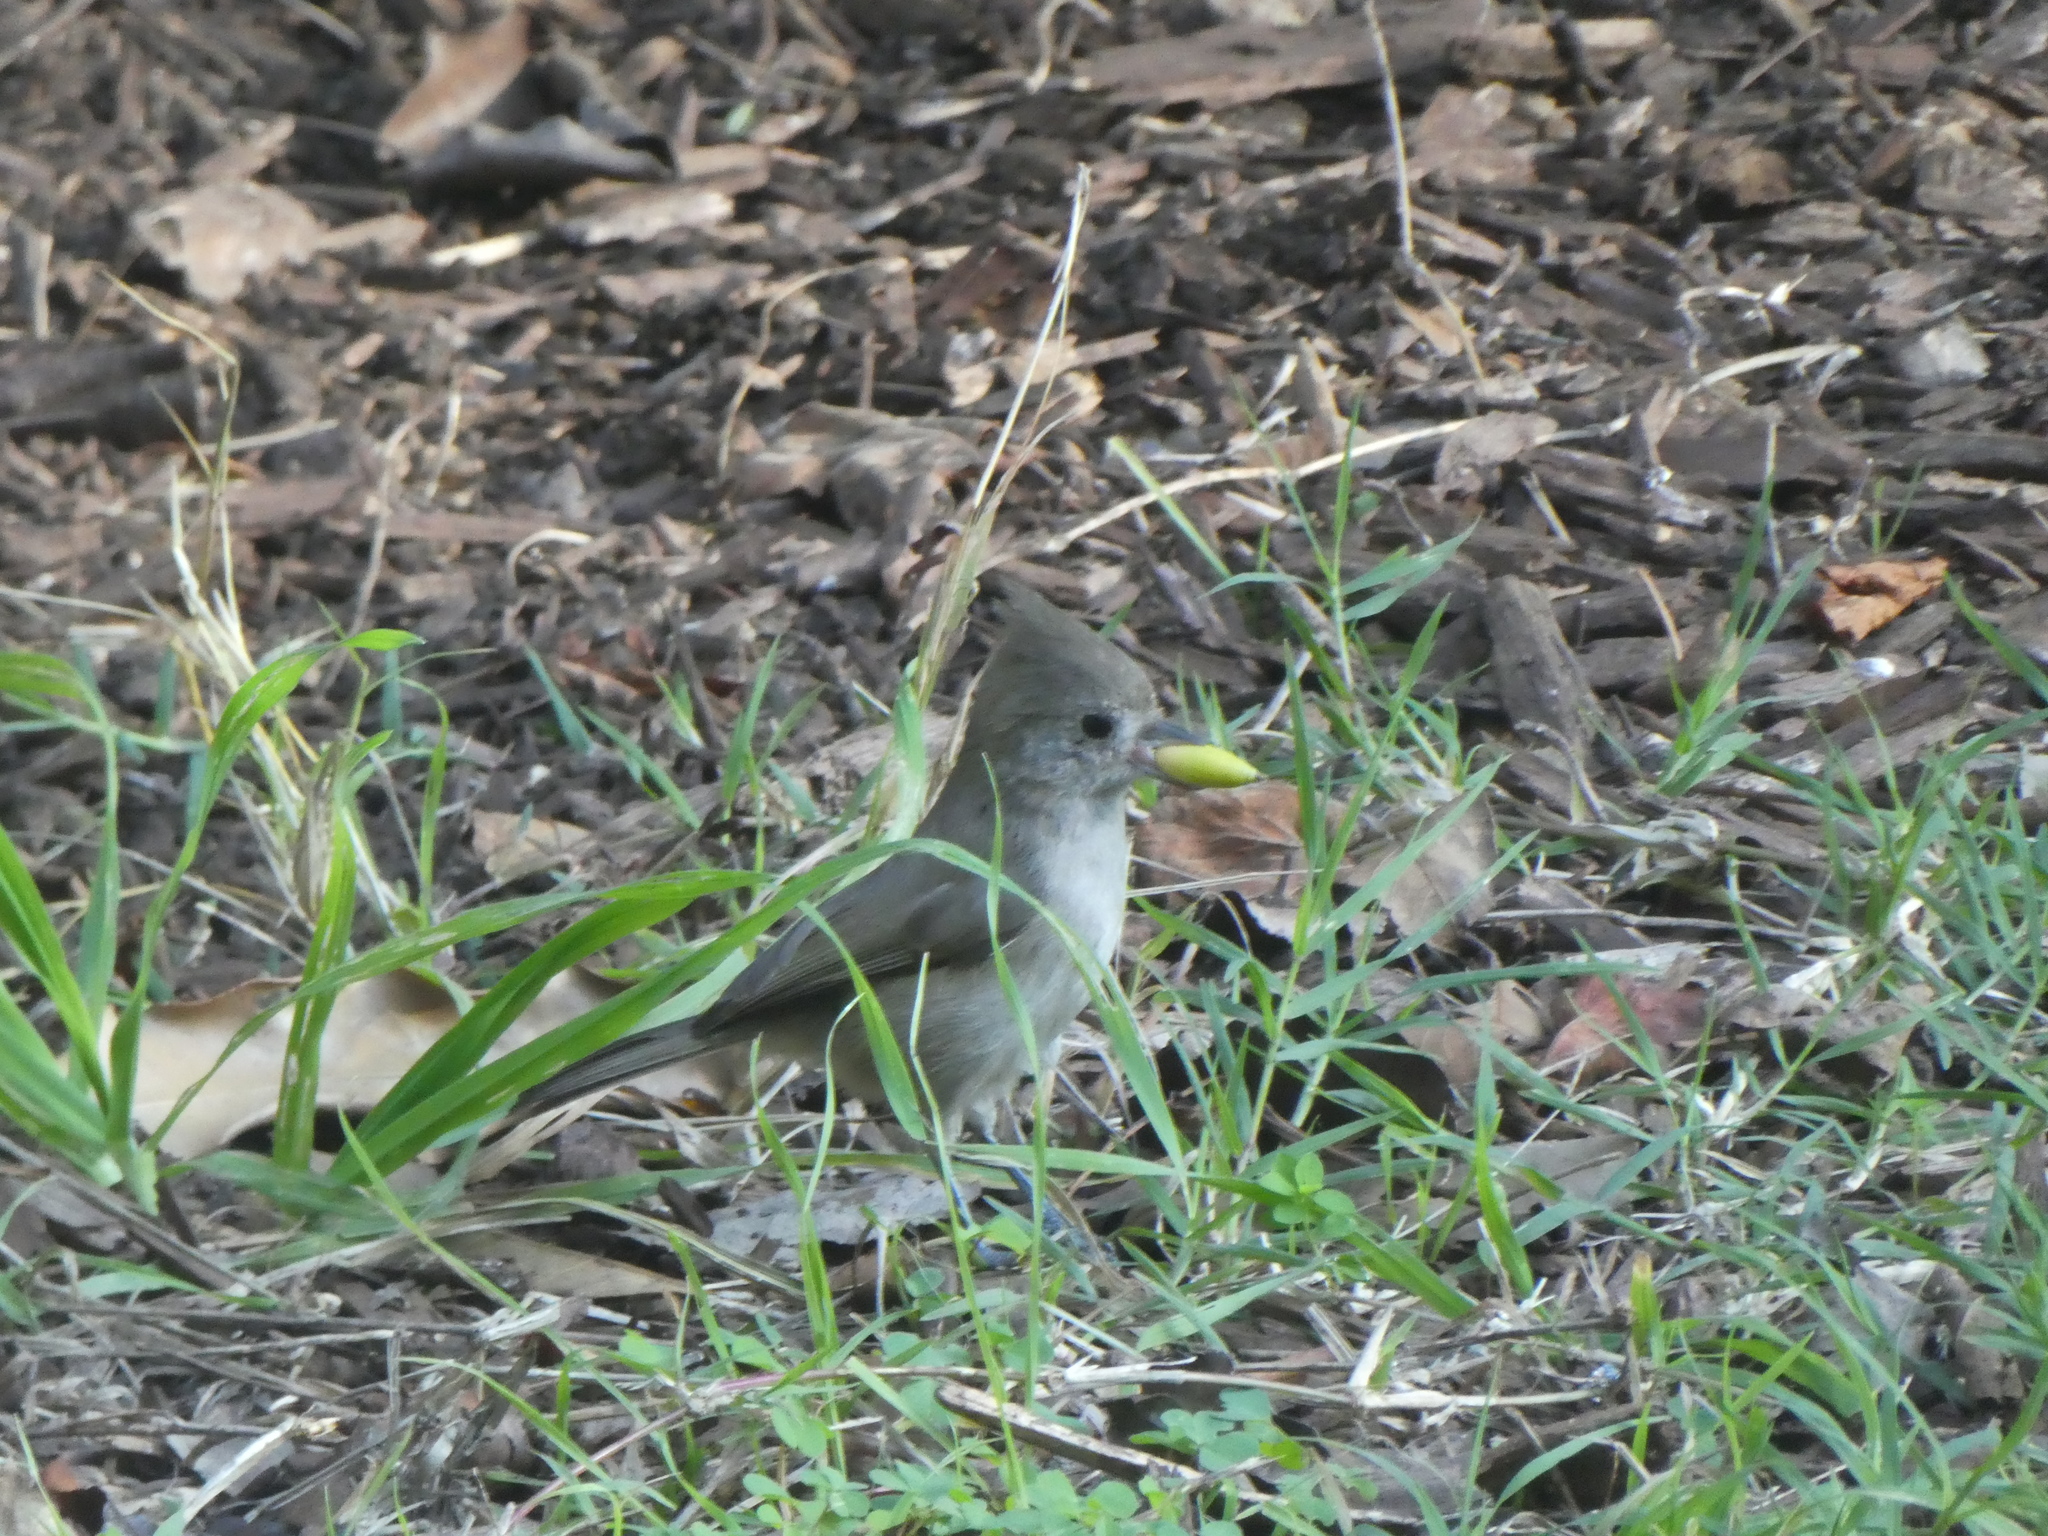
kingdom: Animalia
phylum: Chordata
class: Aves
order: Passeriformes
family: Paridae
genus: Baeolophus
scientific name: Baeolophus inornatus
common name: Oak titmouse
